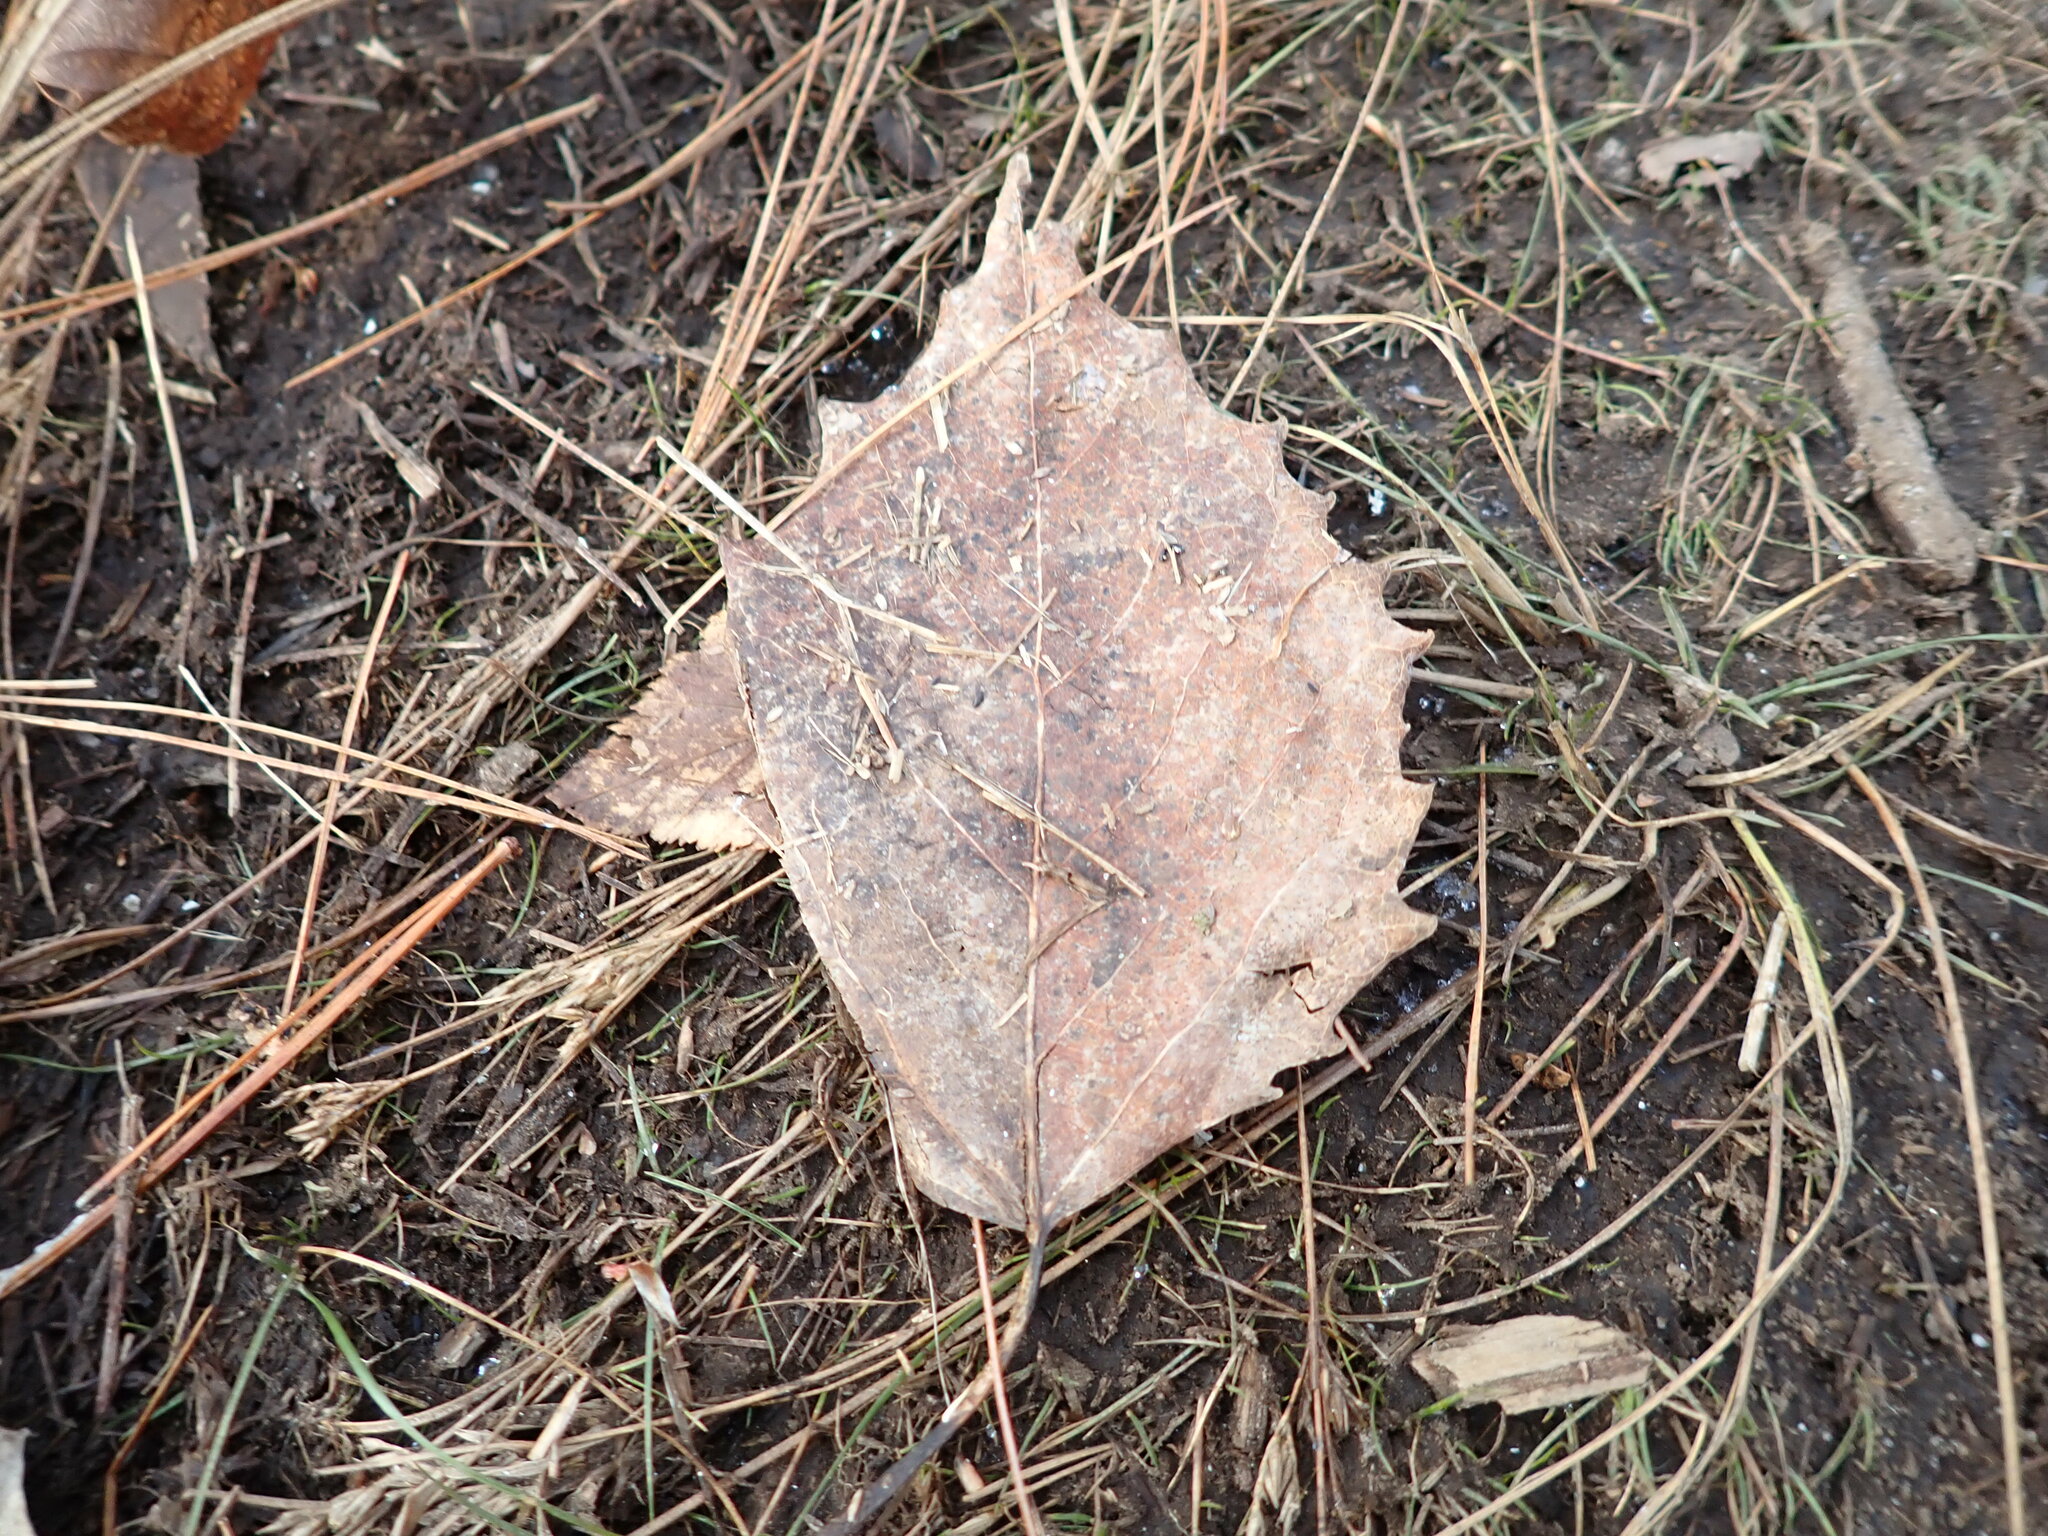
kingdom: Plantae
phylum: Tracheophyta
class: Magnoliopsida
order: Malpighiales
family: Salicaceae
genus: Populus
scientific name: Populus grandidentata
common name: Bigtooth aspen
